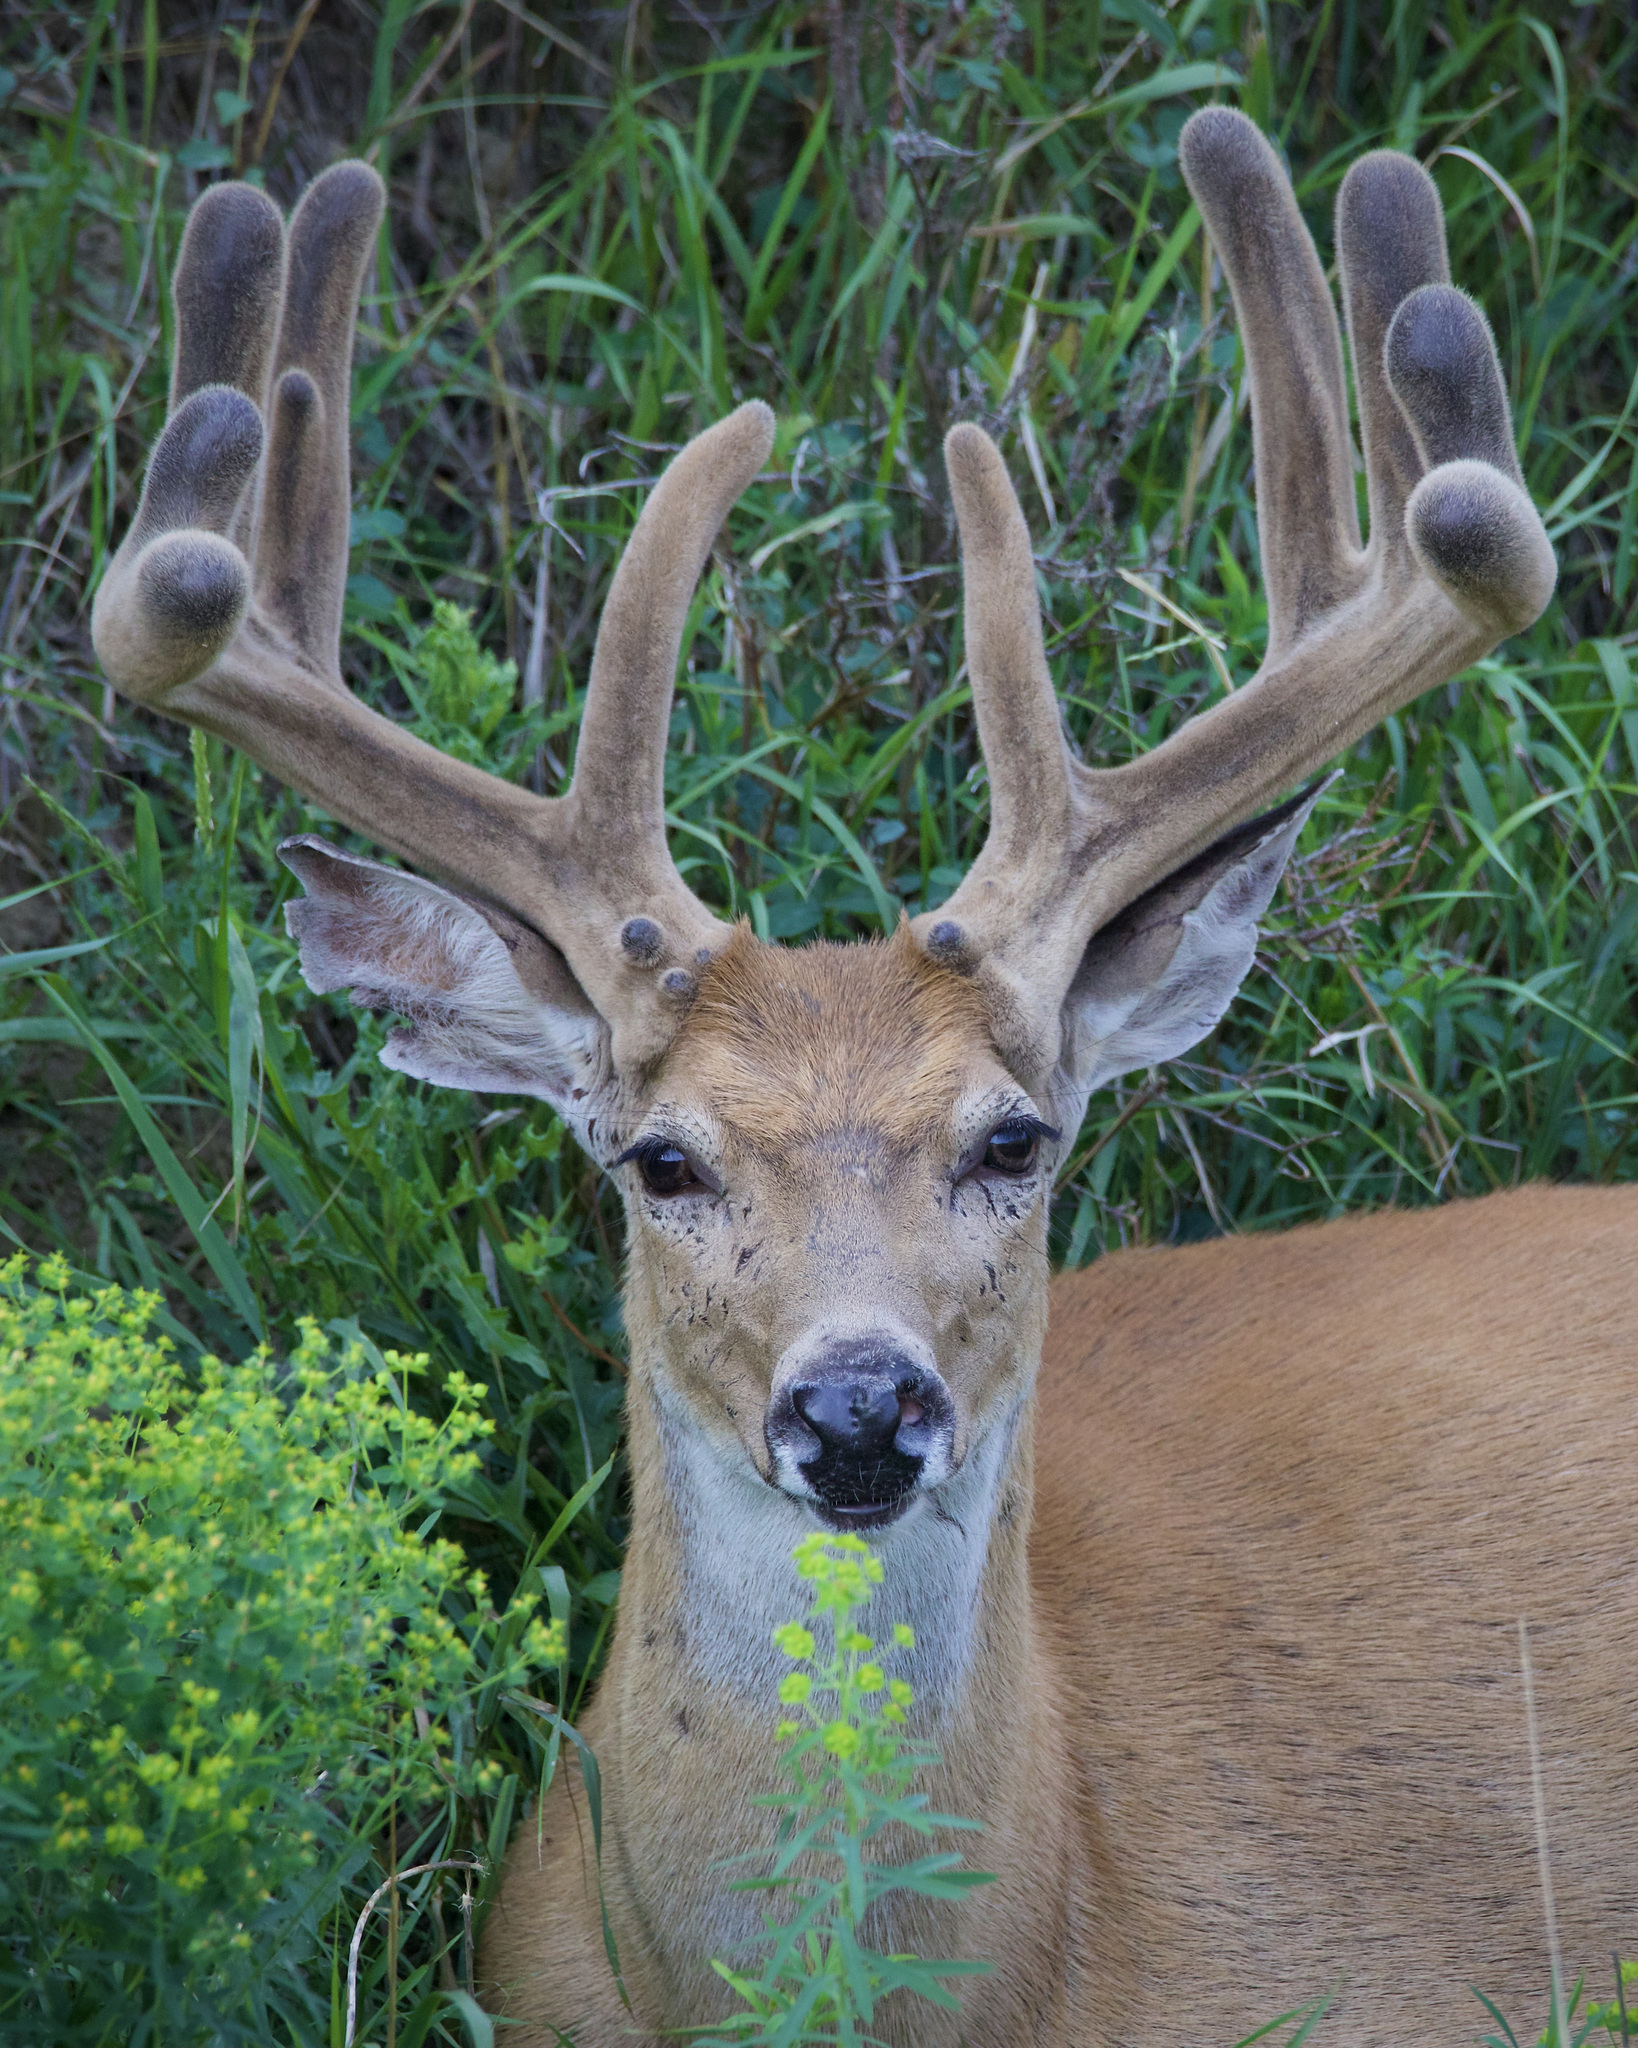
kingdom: Animalia
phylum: Chordata
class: Mammalia
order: Artiodactyla
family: Cervidae
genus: Odocoileus
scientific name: Odocoileus virginianus
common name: White-tailed deer
